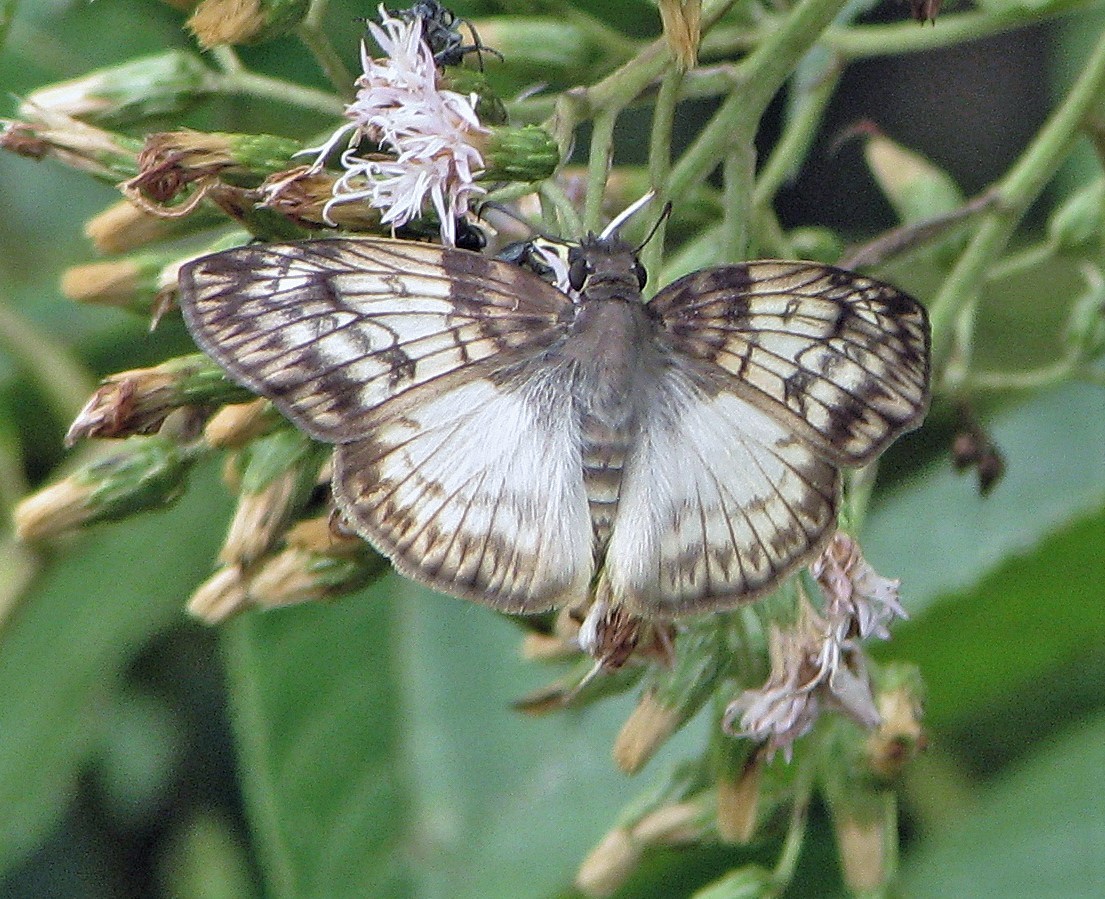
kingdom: Animalia
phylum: Arthropoda
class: Insecta
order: Lepidoptera
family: Hesperiidae
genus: Mylon
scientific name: Mylon maimon
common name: Common mylon
